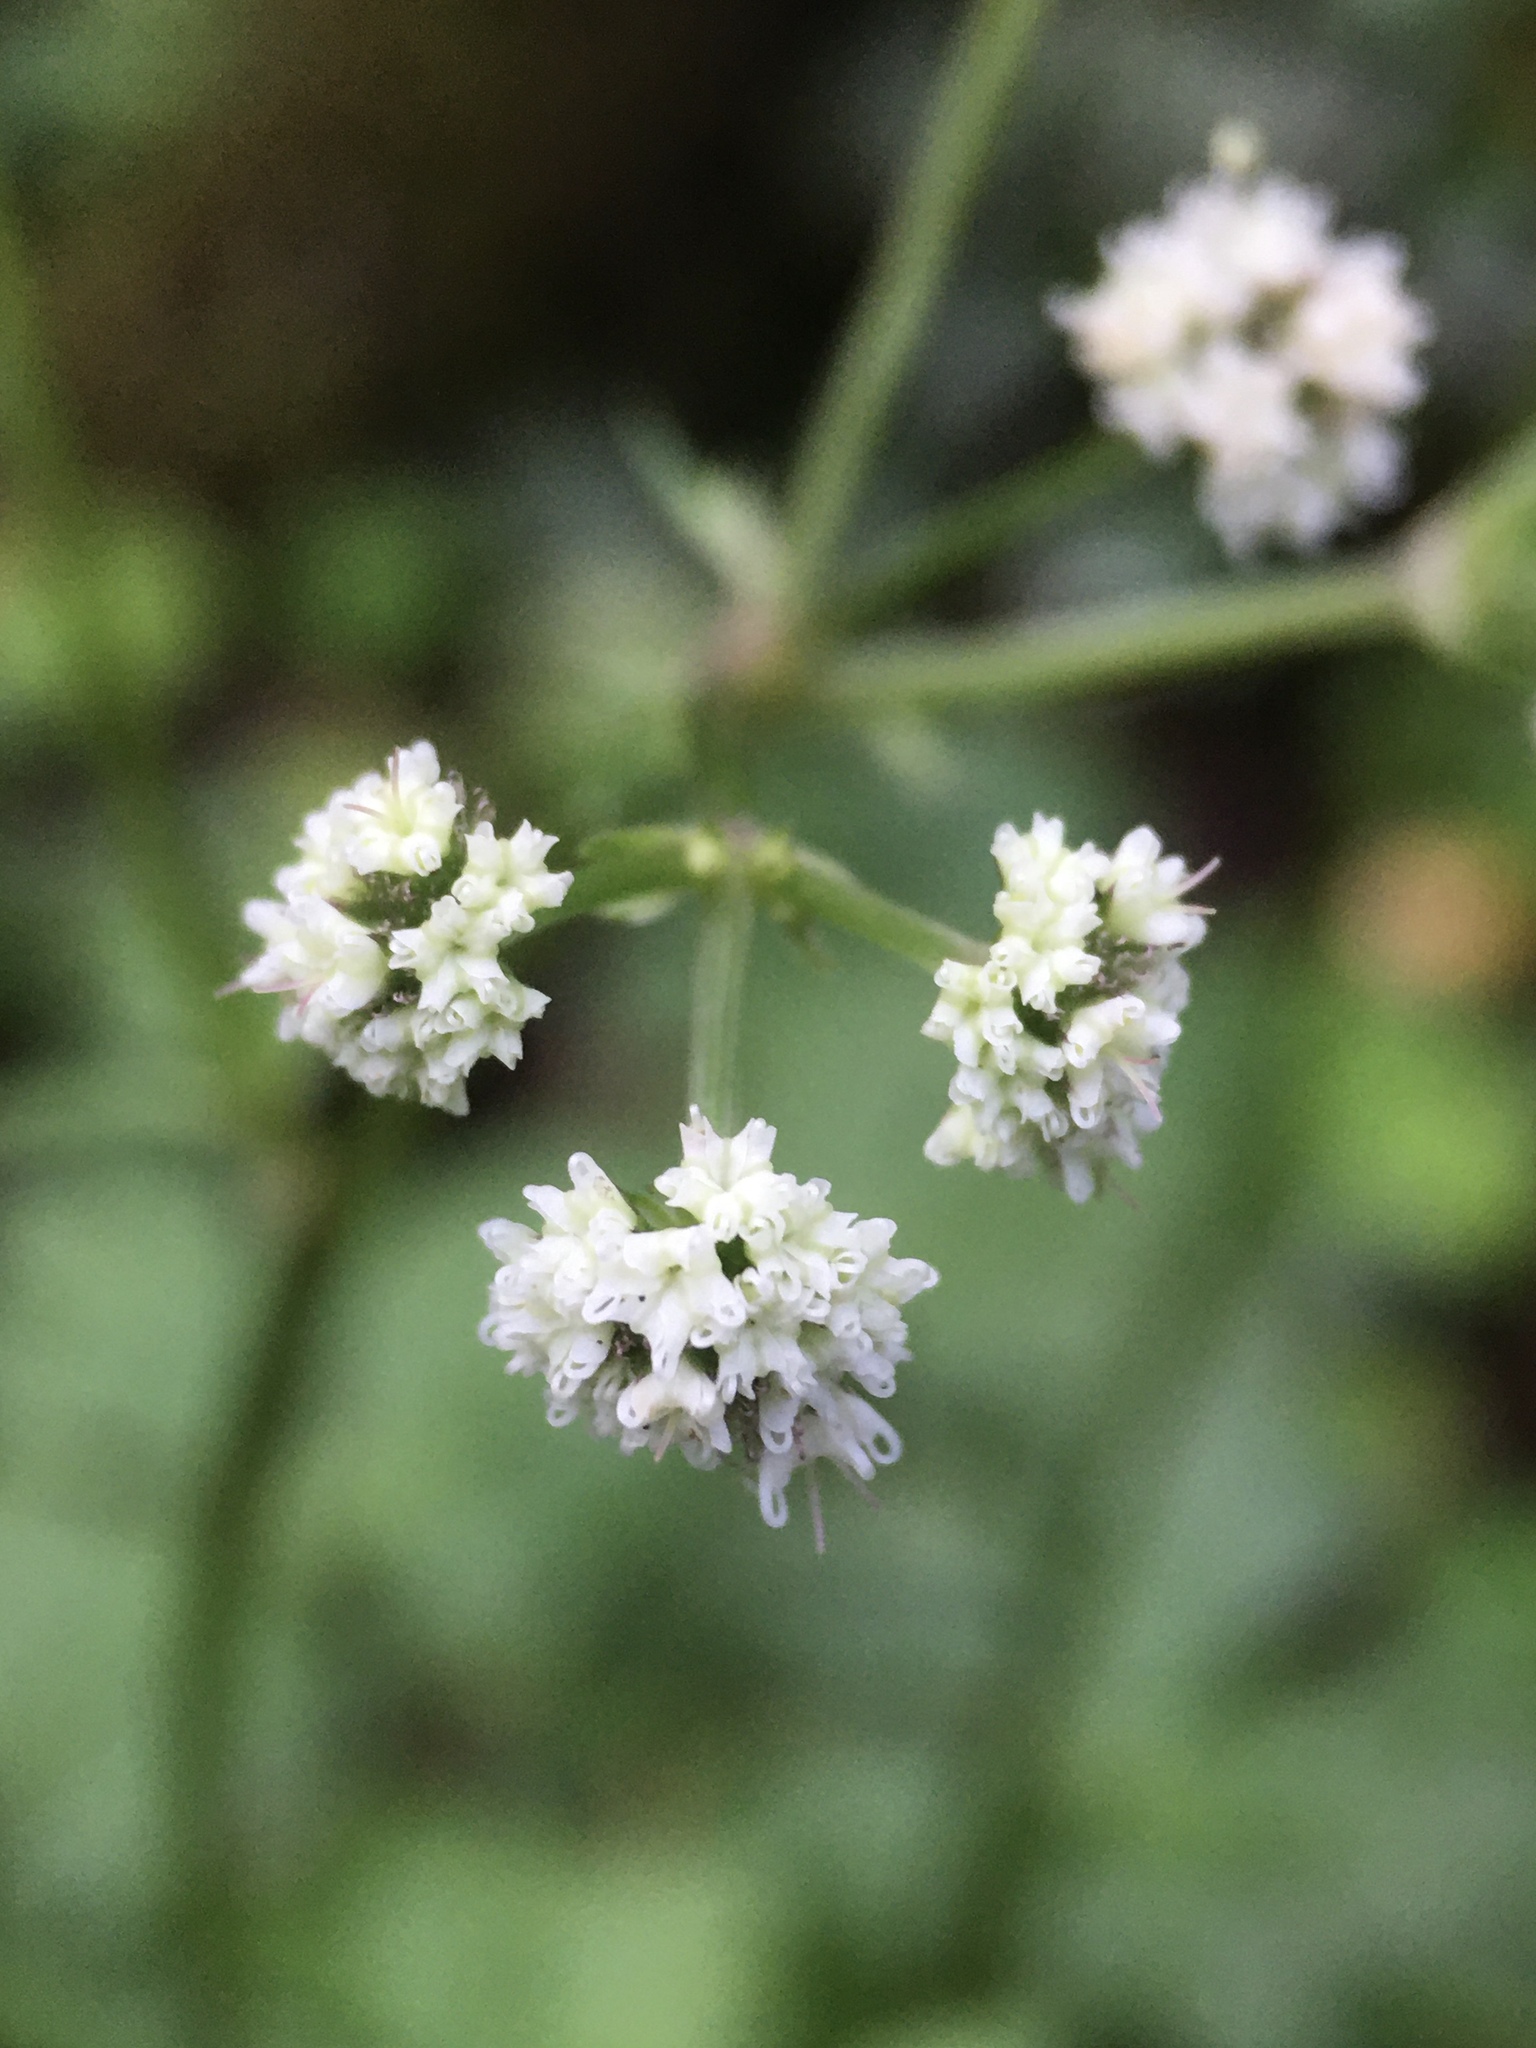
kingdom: Plantae
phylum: Tracheophyta
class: Magnoliopsida
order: Apiales
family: Apiaceae
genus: Sanicula
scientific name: Sanicula europaea
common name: Sanicle
